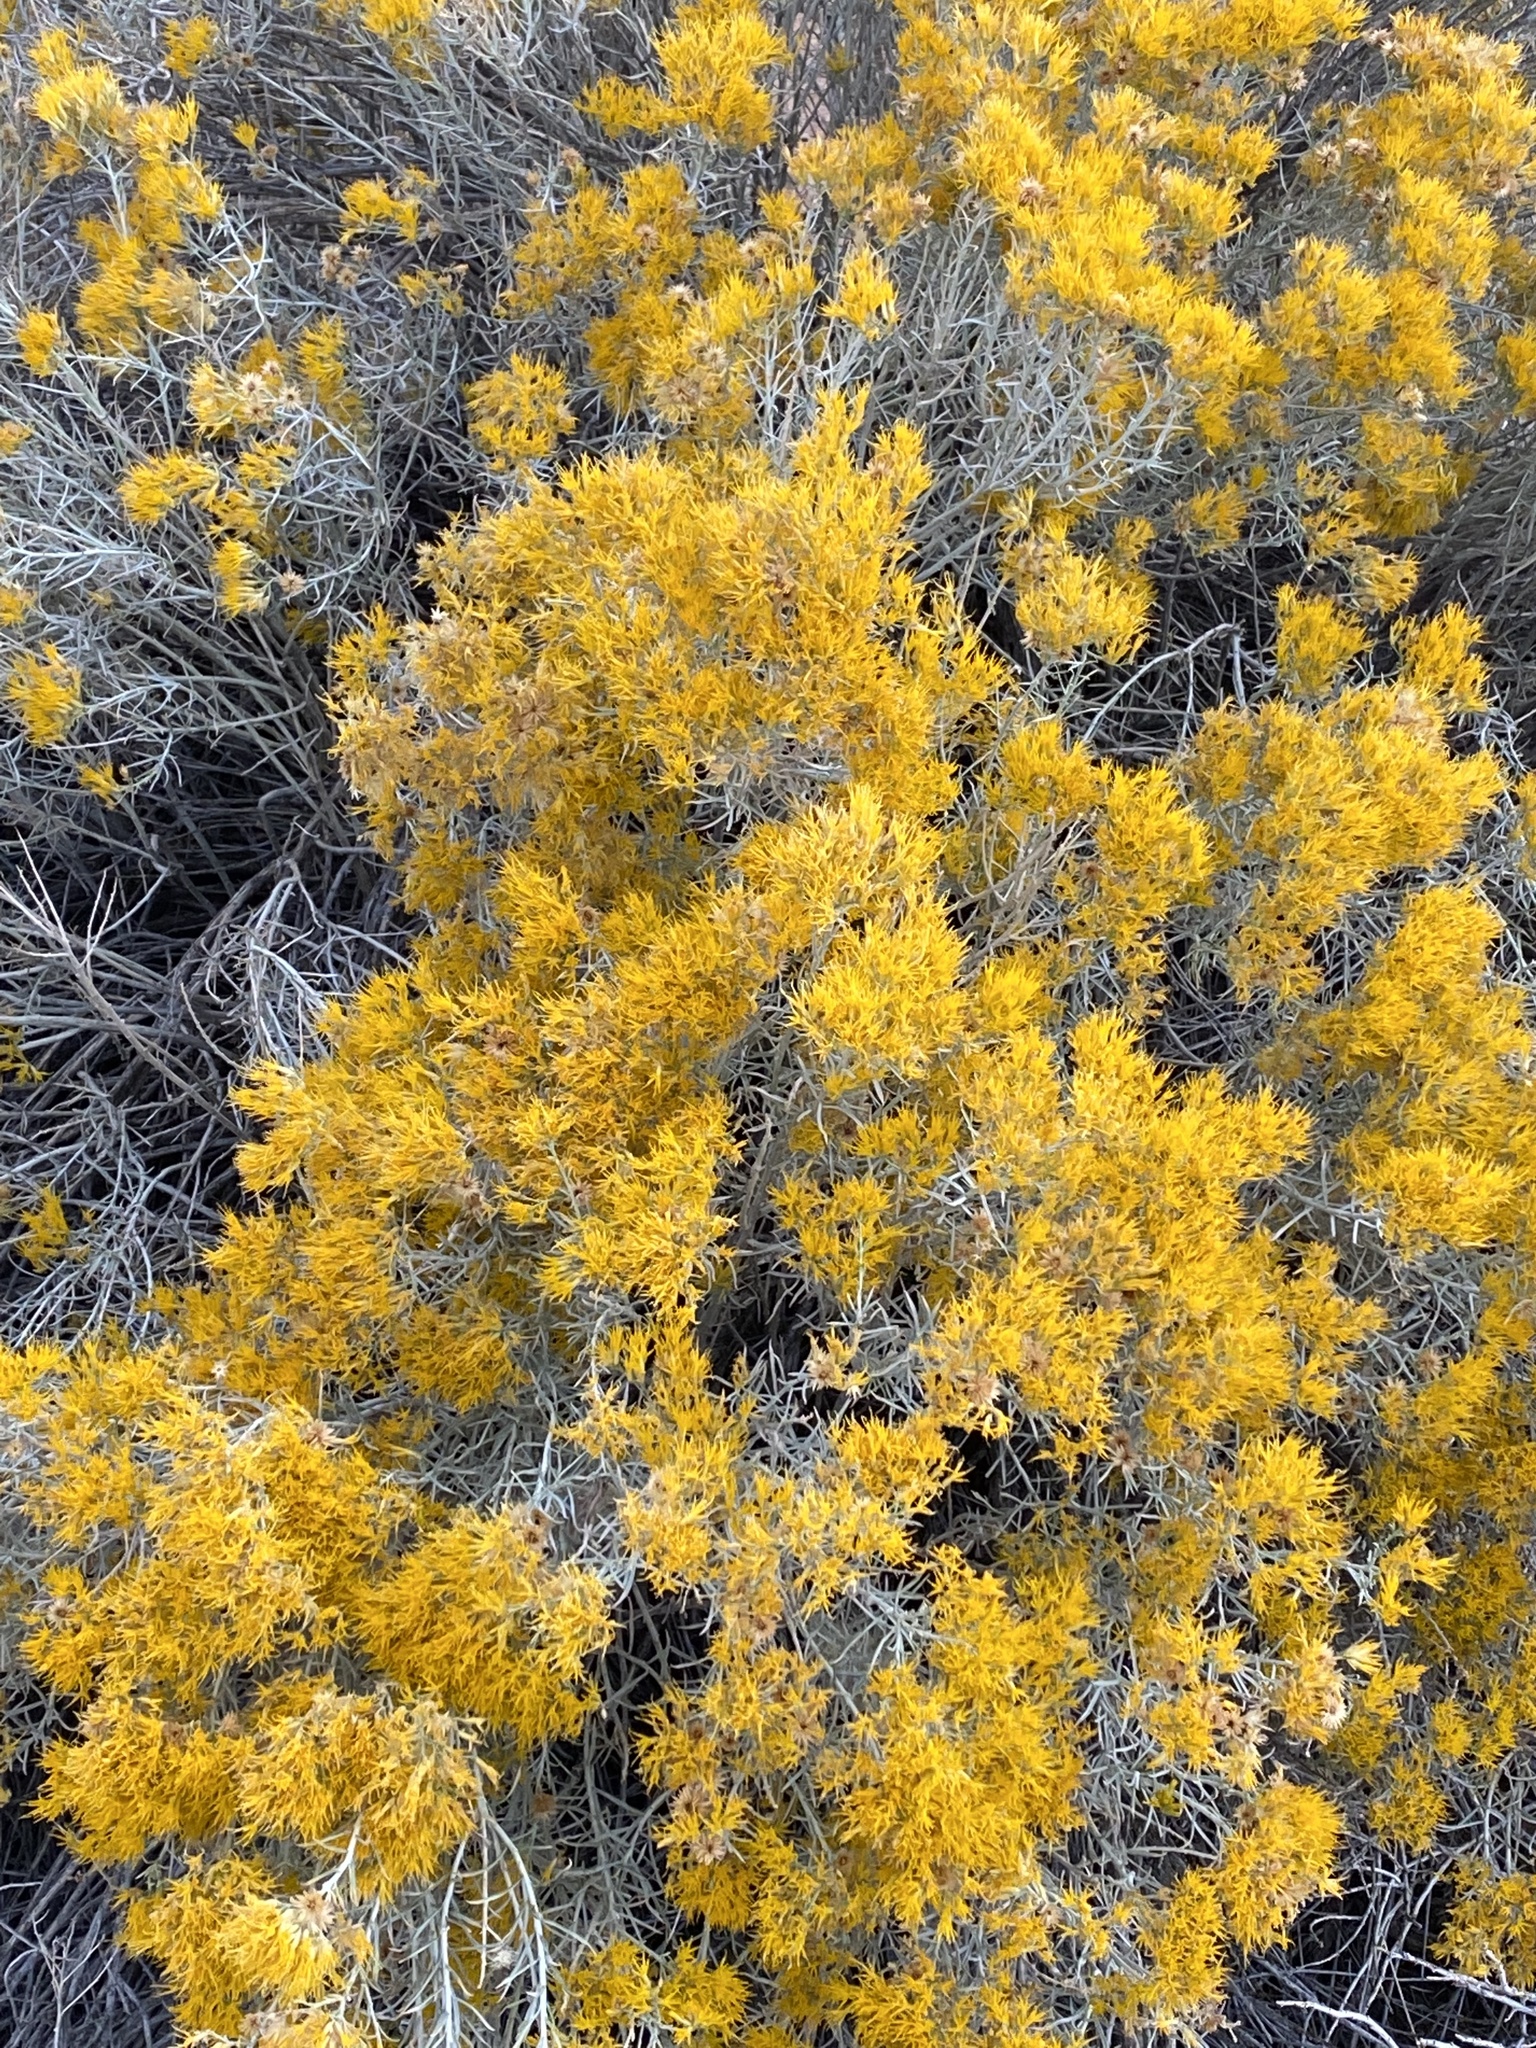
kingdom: Plantae
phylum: Tracheophyta
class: Magnoliopsida
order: Asterales
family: Asteraceae
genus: Ericameria
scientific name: Ericameria nauseosa
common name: Rubber rabbitbrush
